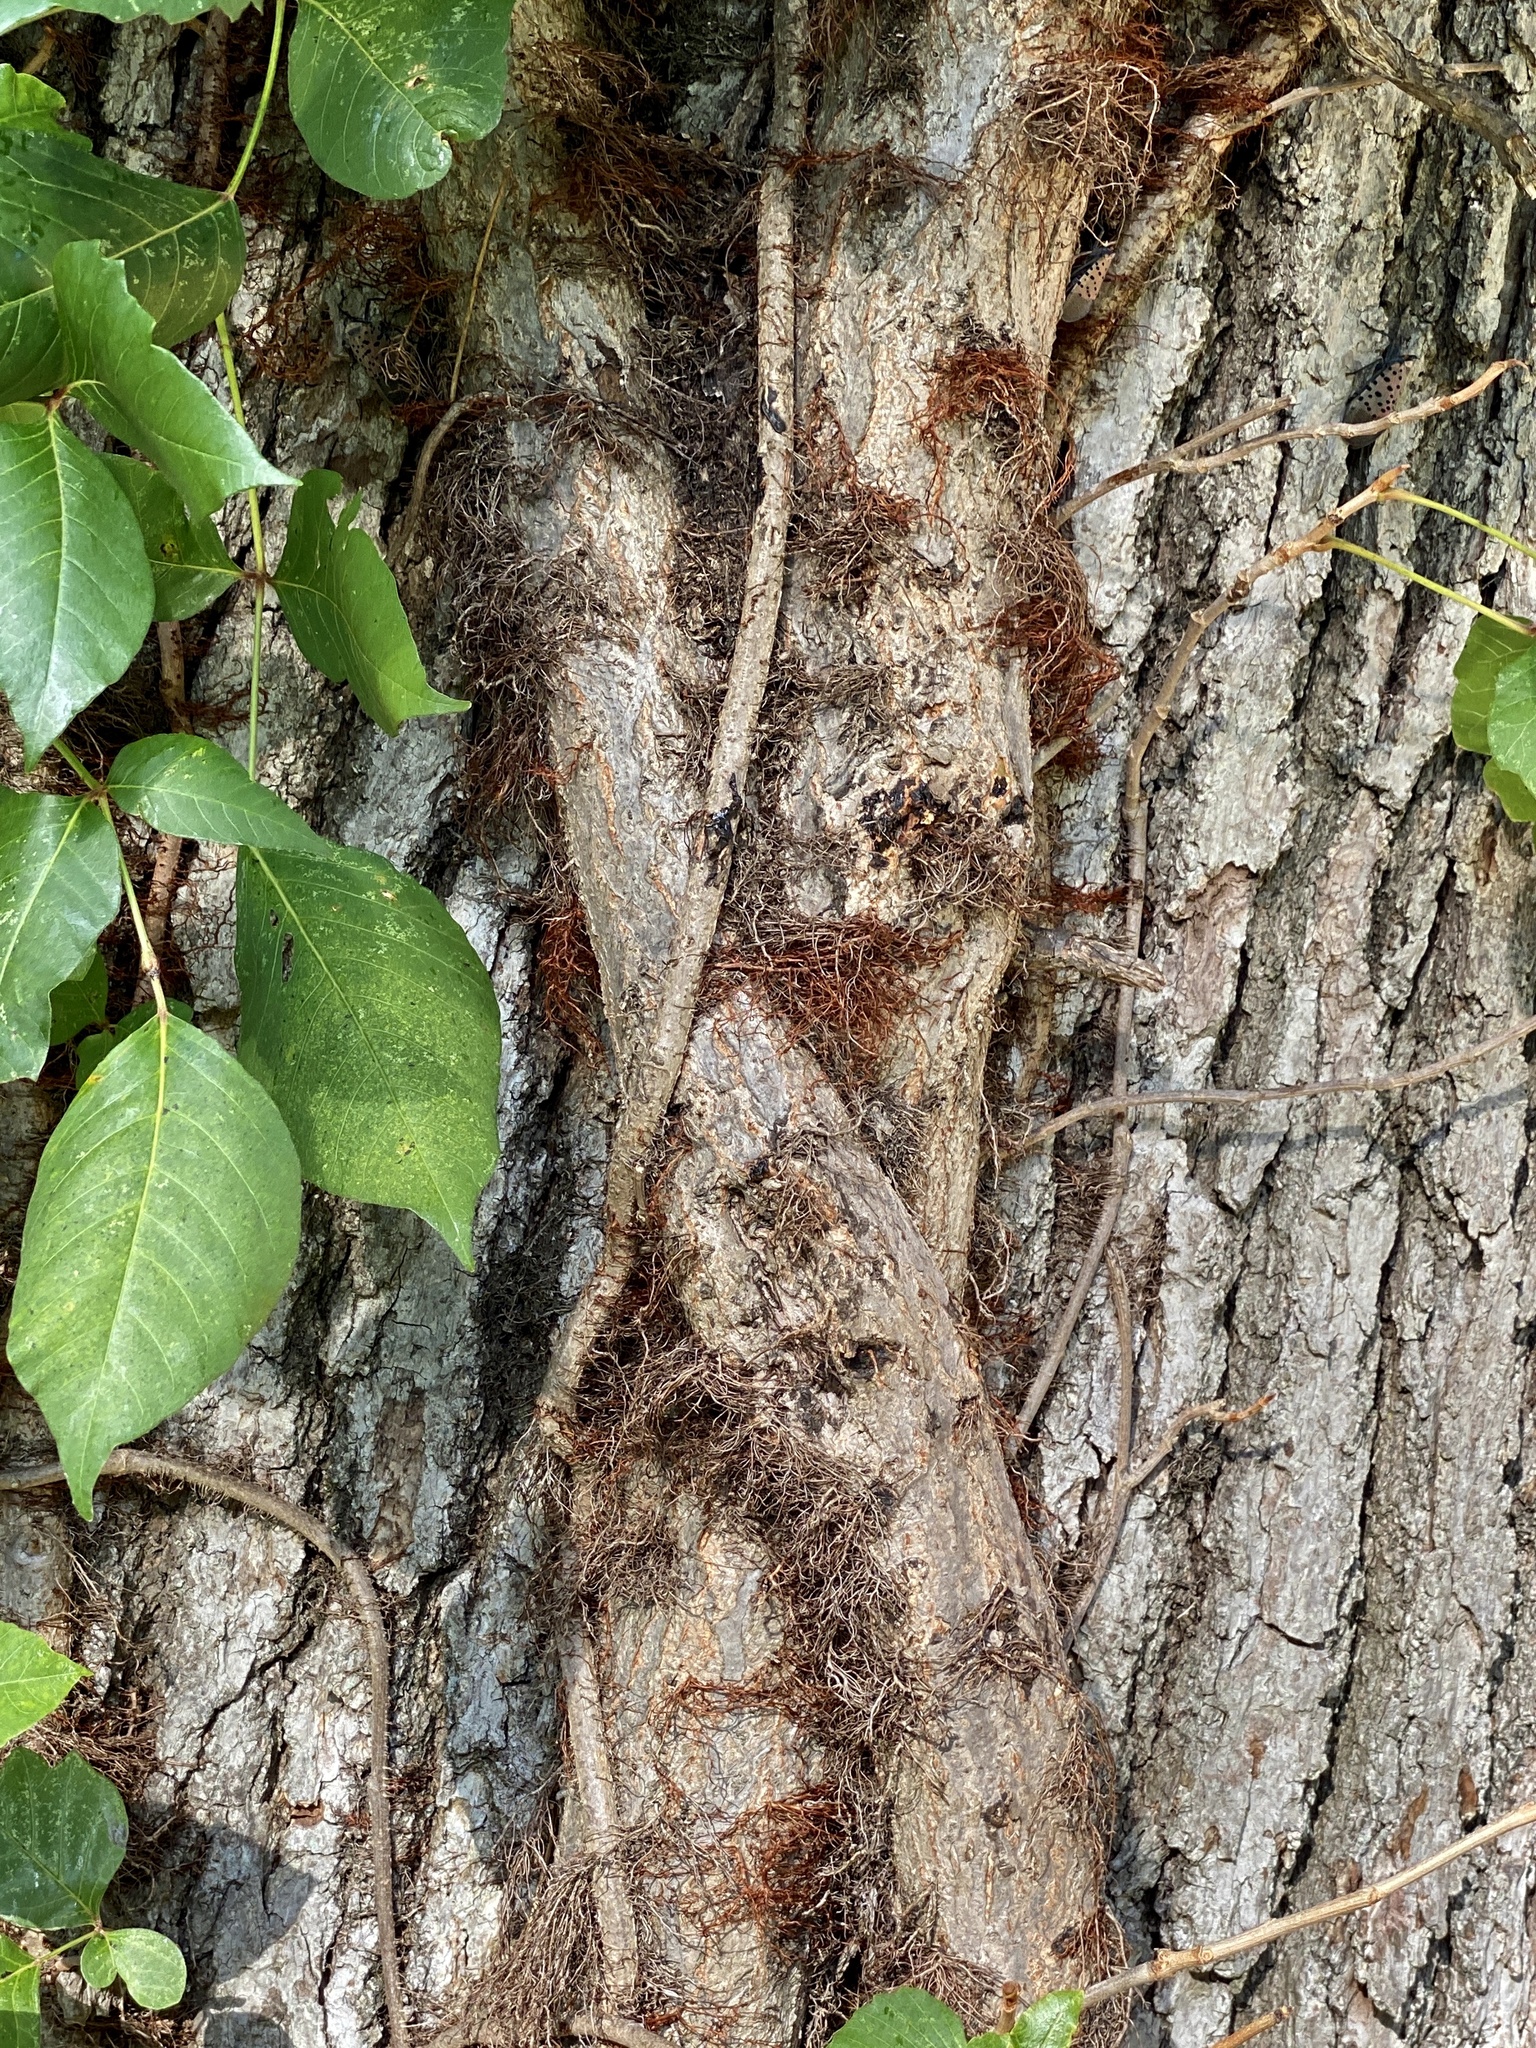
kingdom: Plantae
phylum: Tracheophyta
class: Magnoliopsida
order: Sapindales
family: Anacardiaceae
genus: Toxicodendron
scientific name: Toxicodendron radicans
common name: Poison ivy
